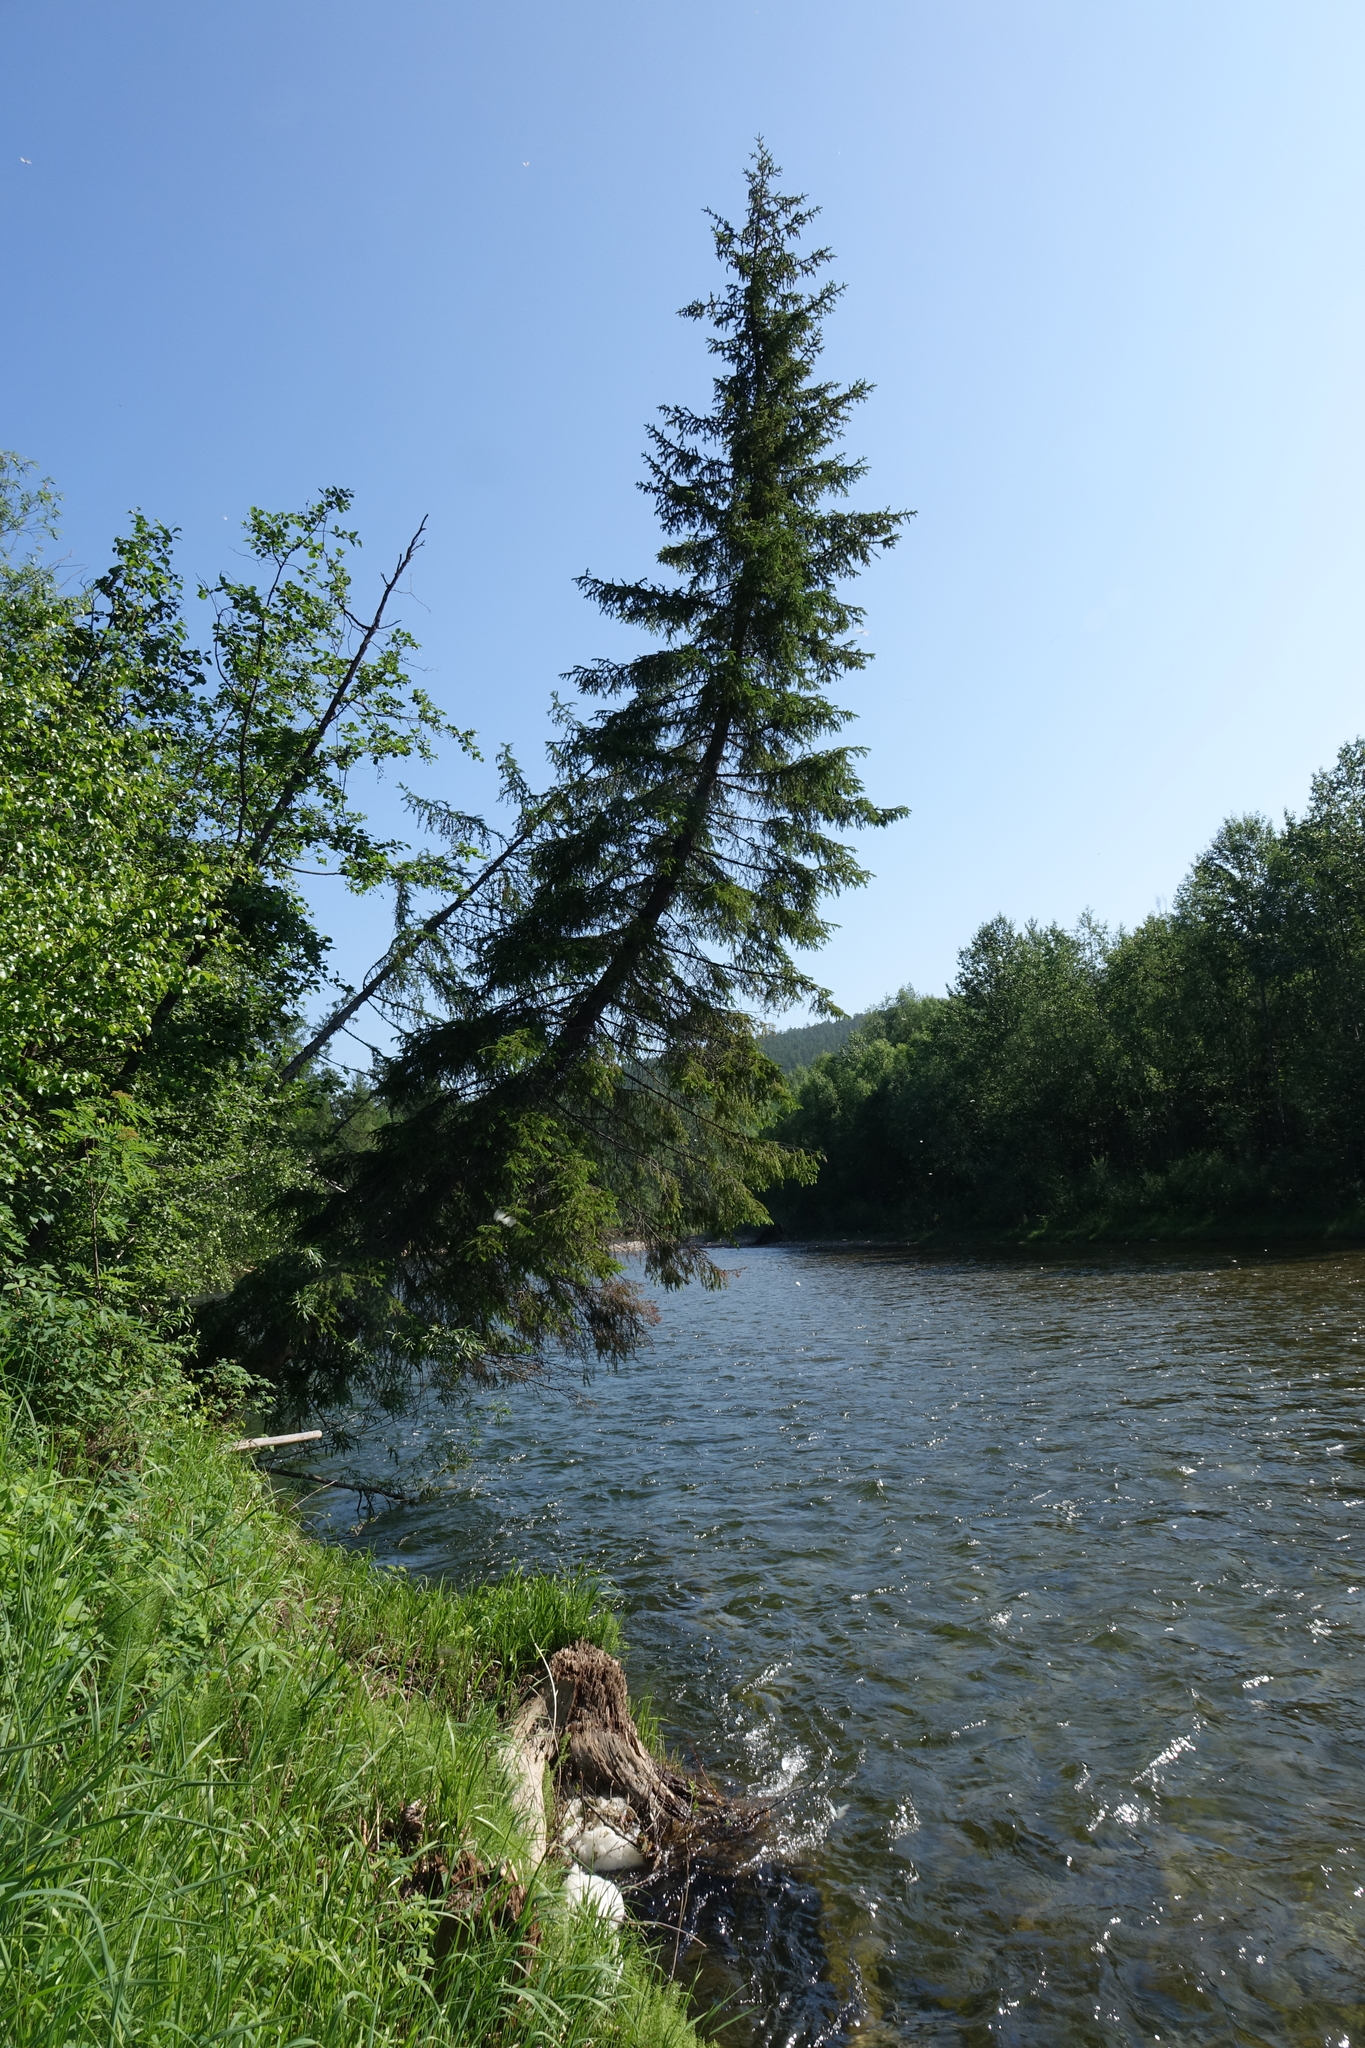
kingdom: Plantae
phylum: Tracheophyta
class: Pinopsida
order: Pinales
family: Pinaceae
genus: Picea
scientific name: Picea obovata
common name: Siberian spruce
